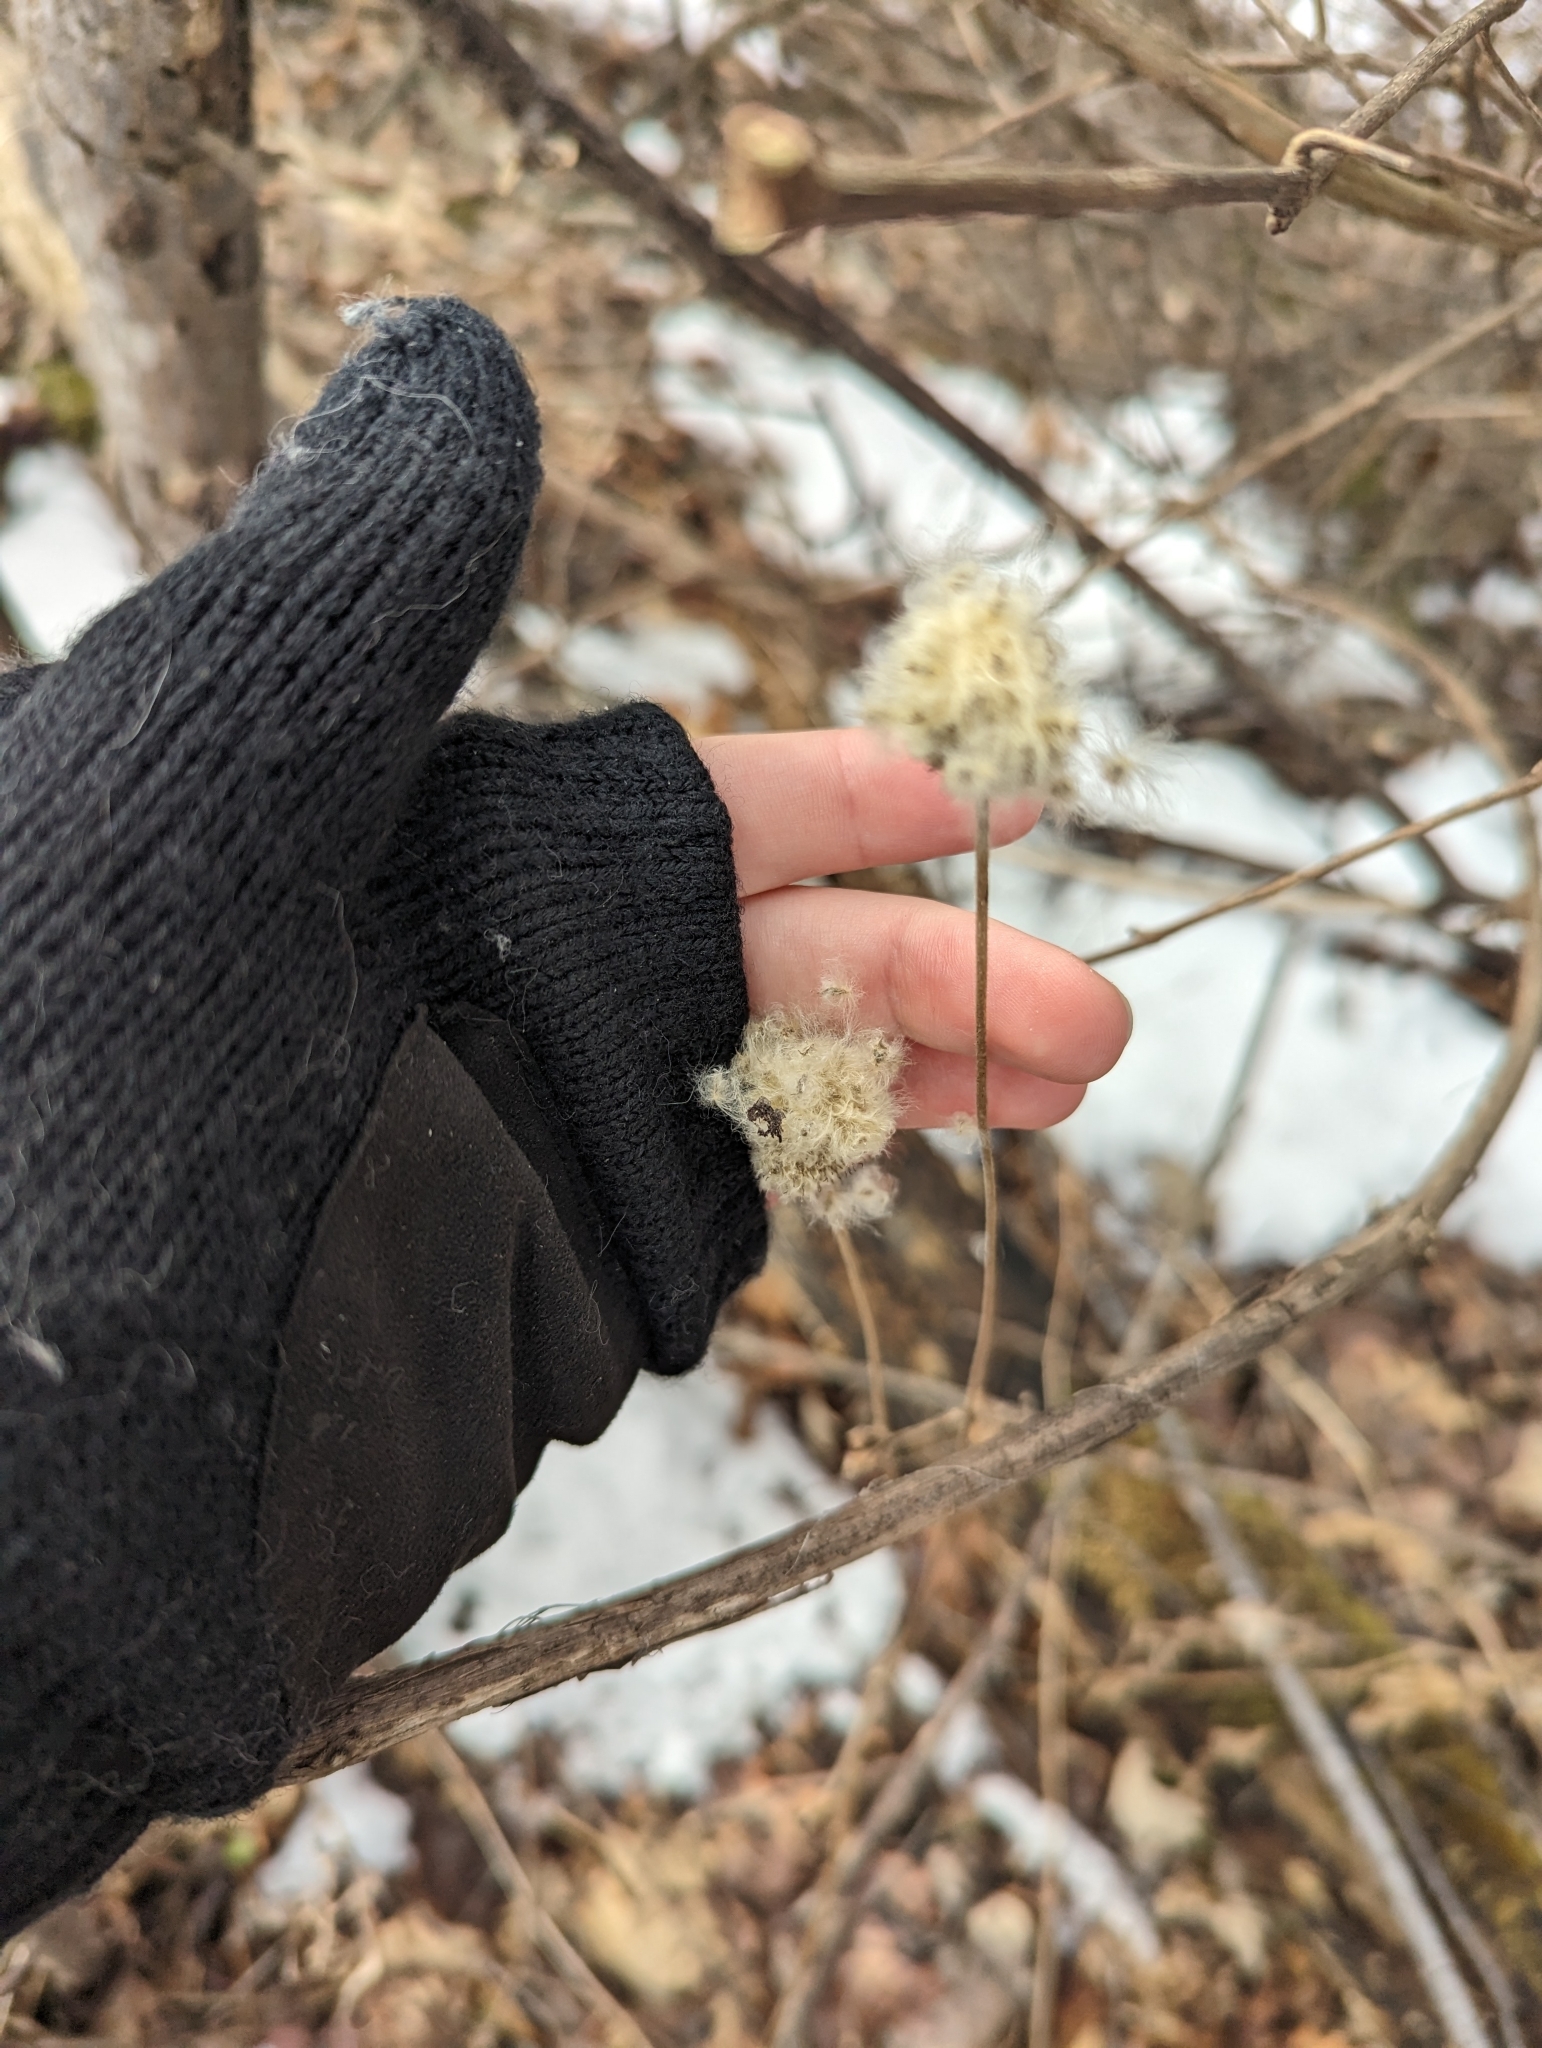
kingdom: Plantae
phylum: Tracheophyta
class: Magnoliopsida
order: Ranunculales
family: Ranunculaceae
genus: Anemone
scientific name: Anemone virginiana
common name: Tall anemone
